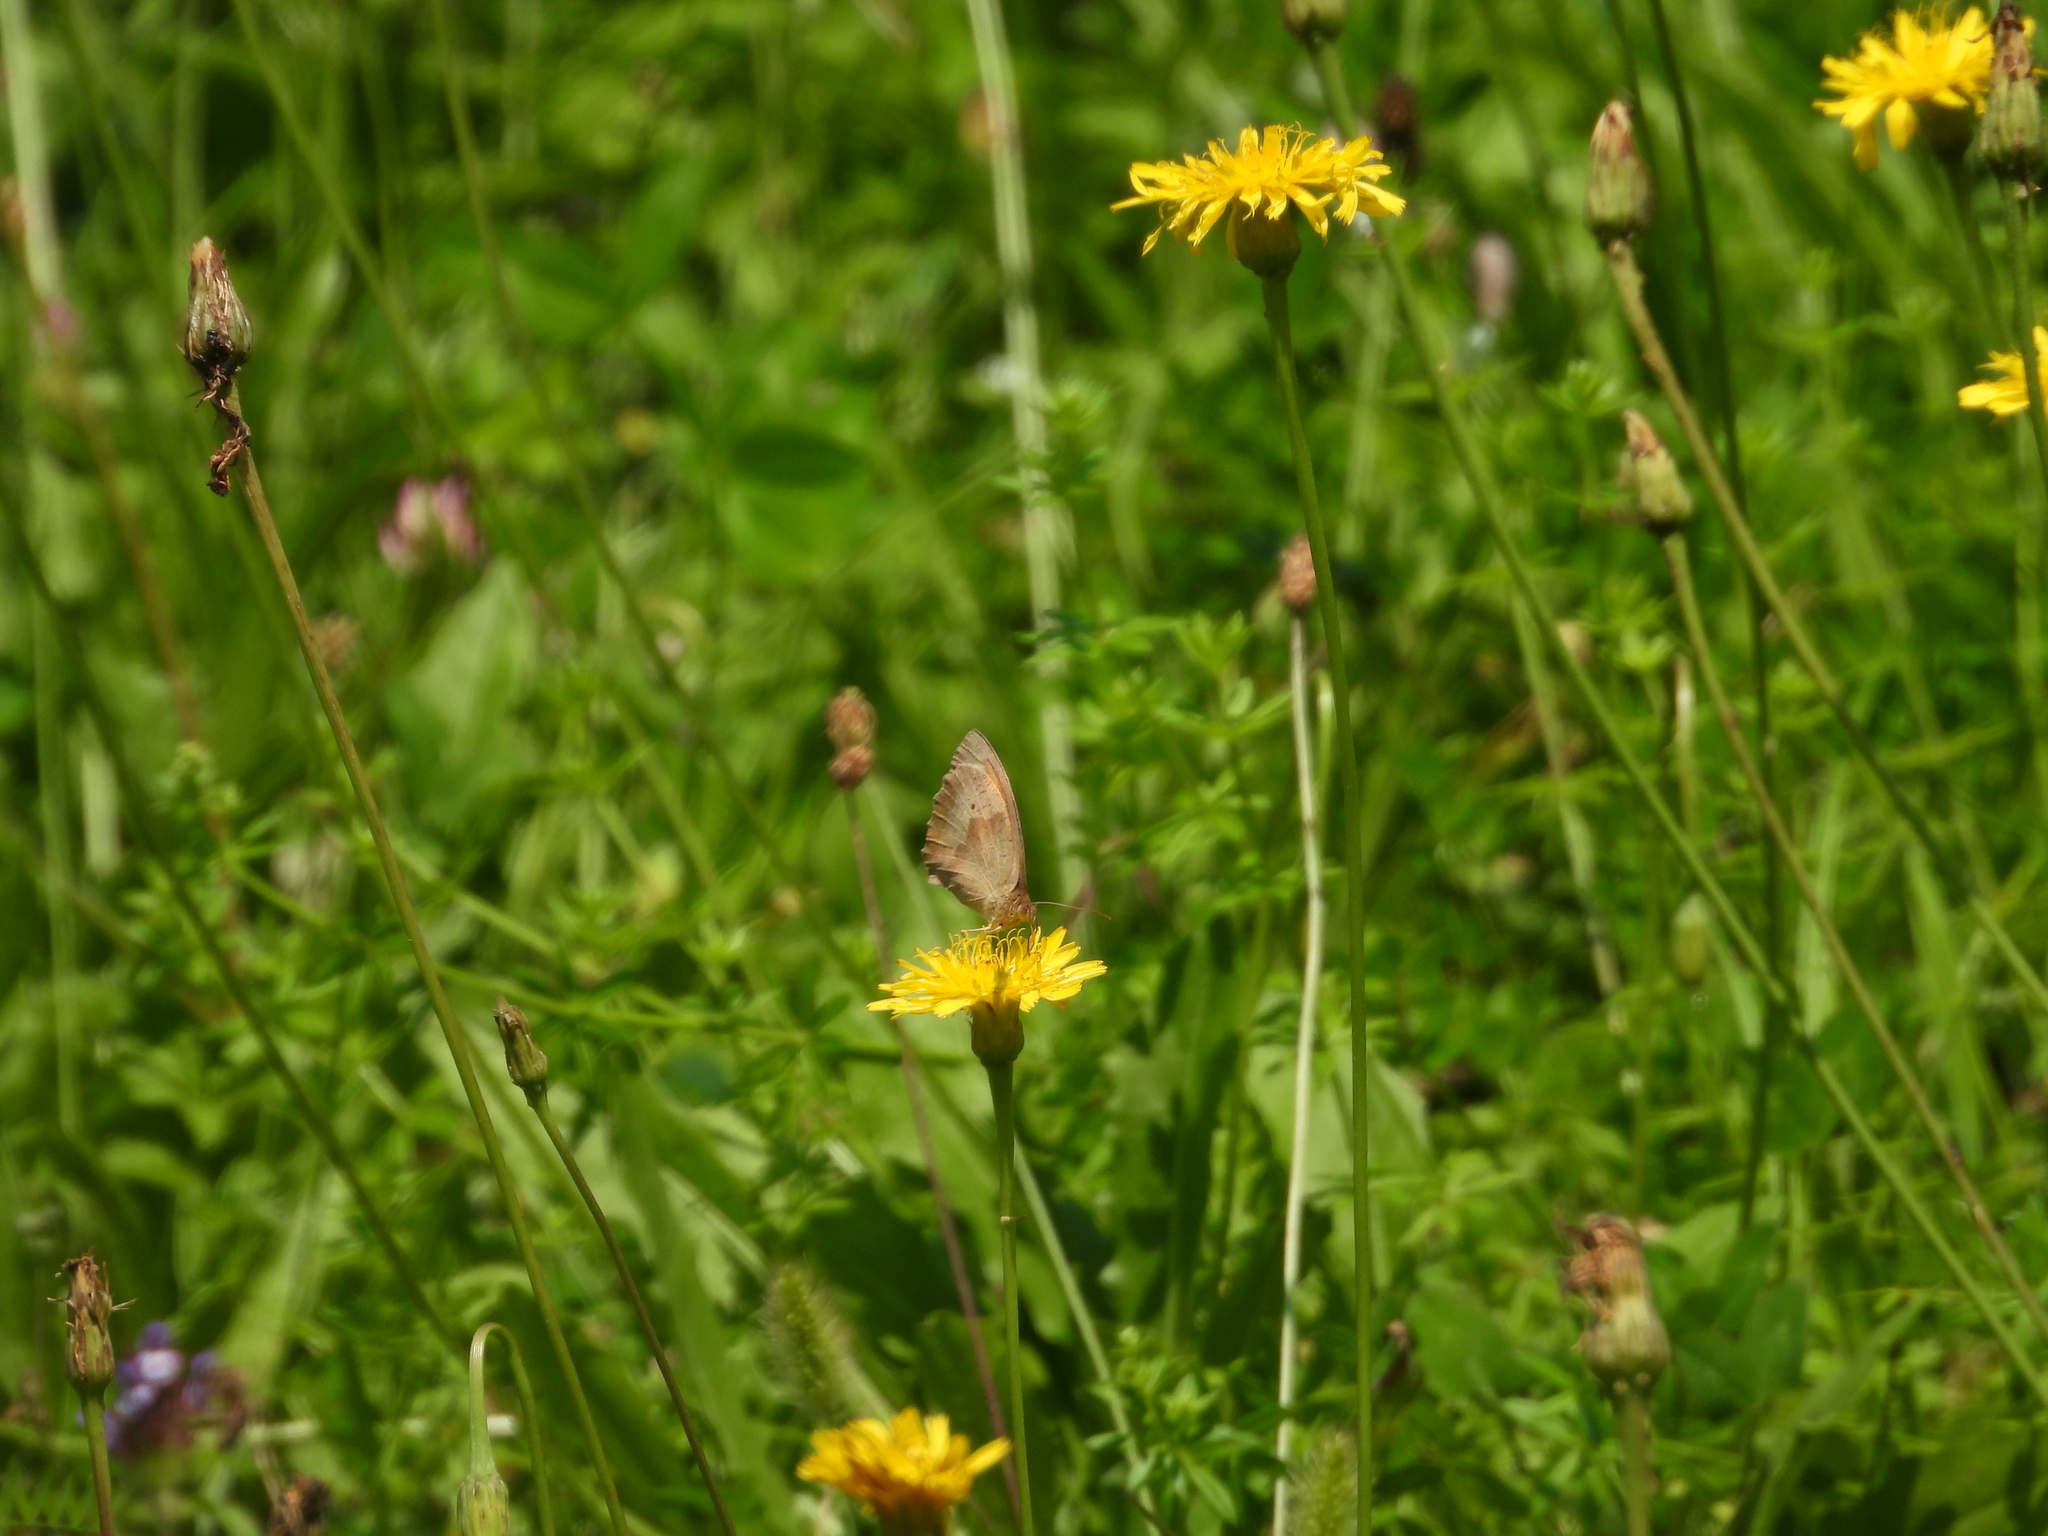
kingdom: Animalia
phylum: Arthropoda
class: Insecta
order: Lepidoptera
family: Nymphalidae
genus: Maniola
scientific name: Maniola jurtina
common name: Meadow brown
